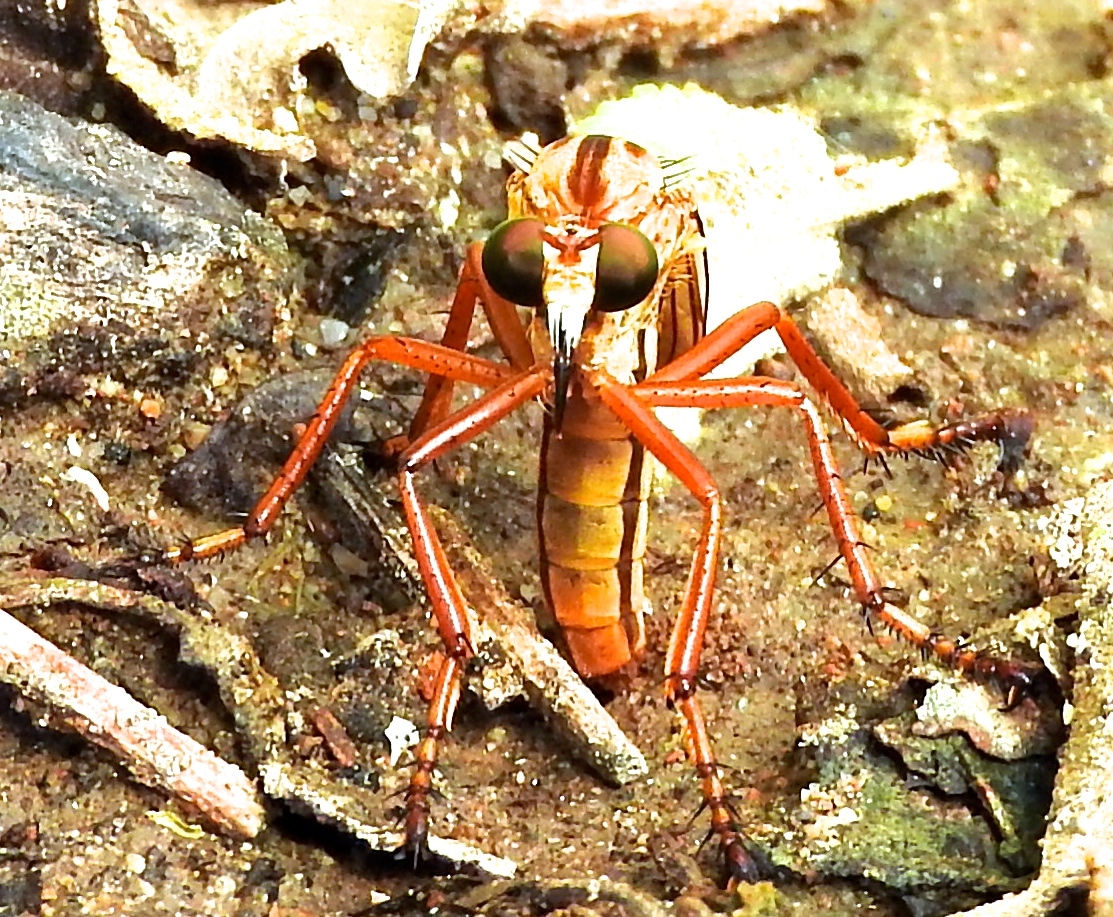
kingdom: Animalia
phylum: Arthropoda
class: Insecta
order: Diptera
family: Asilidae
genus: Diogmites
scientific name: Diogmites
